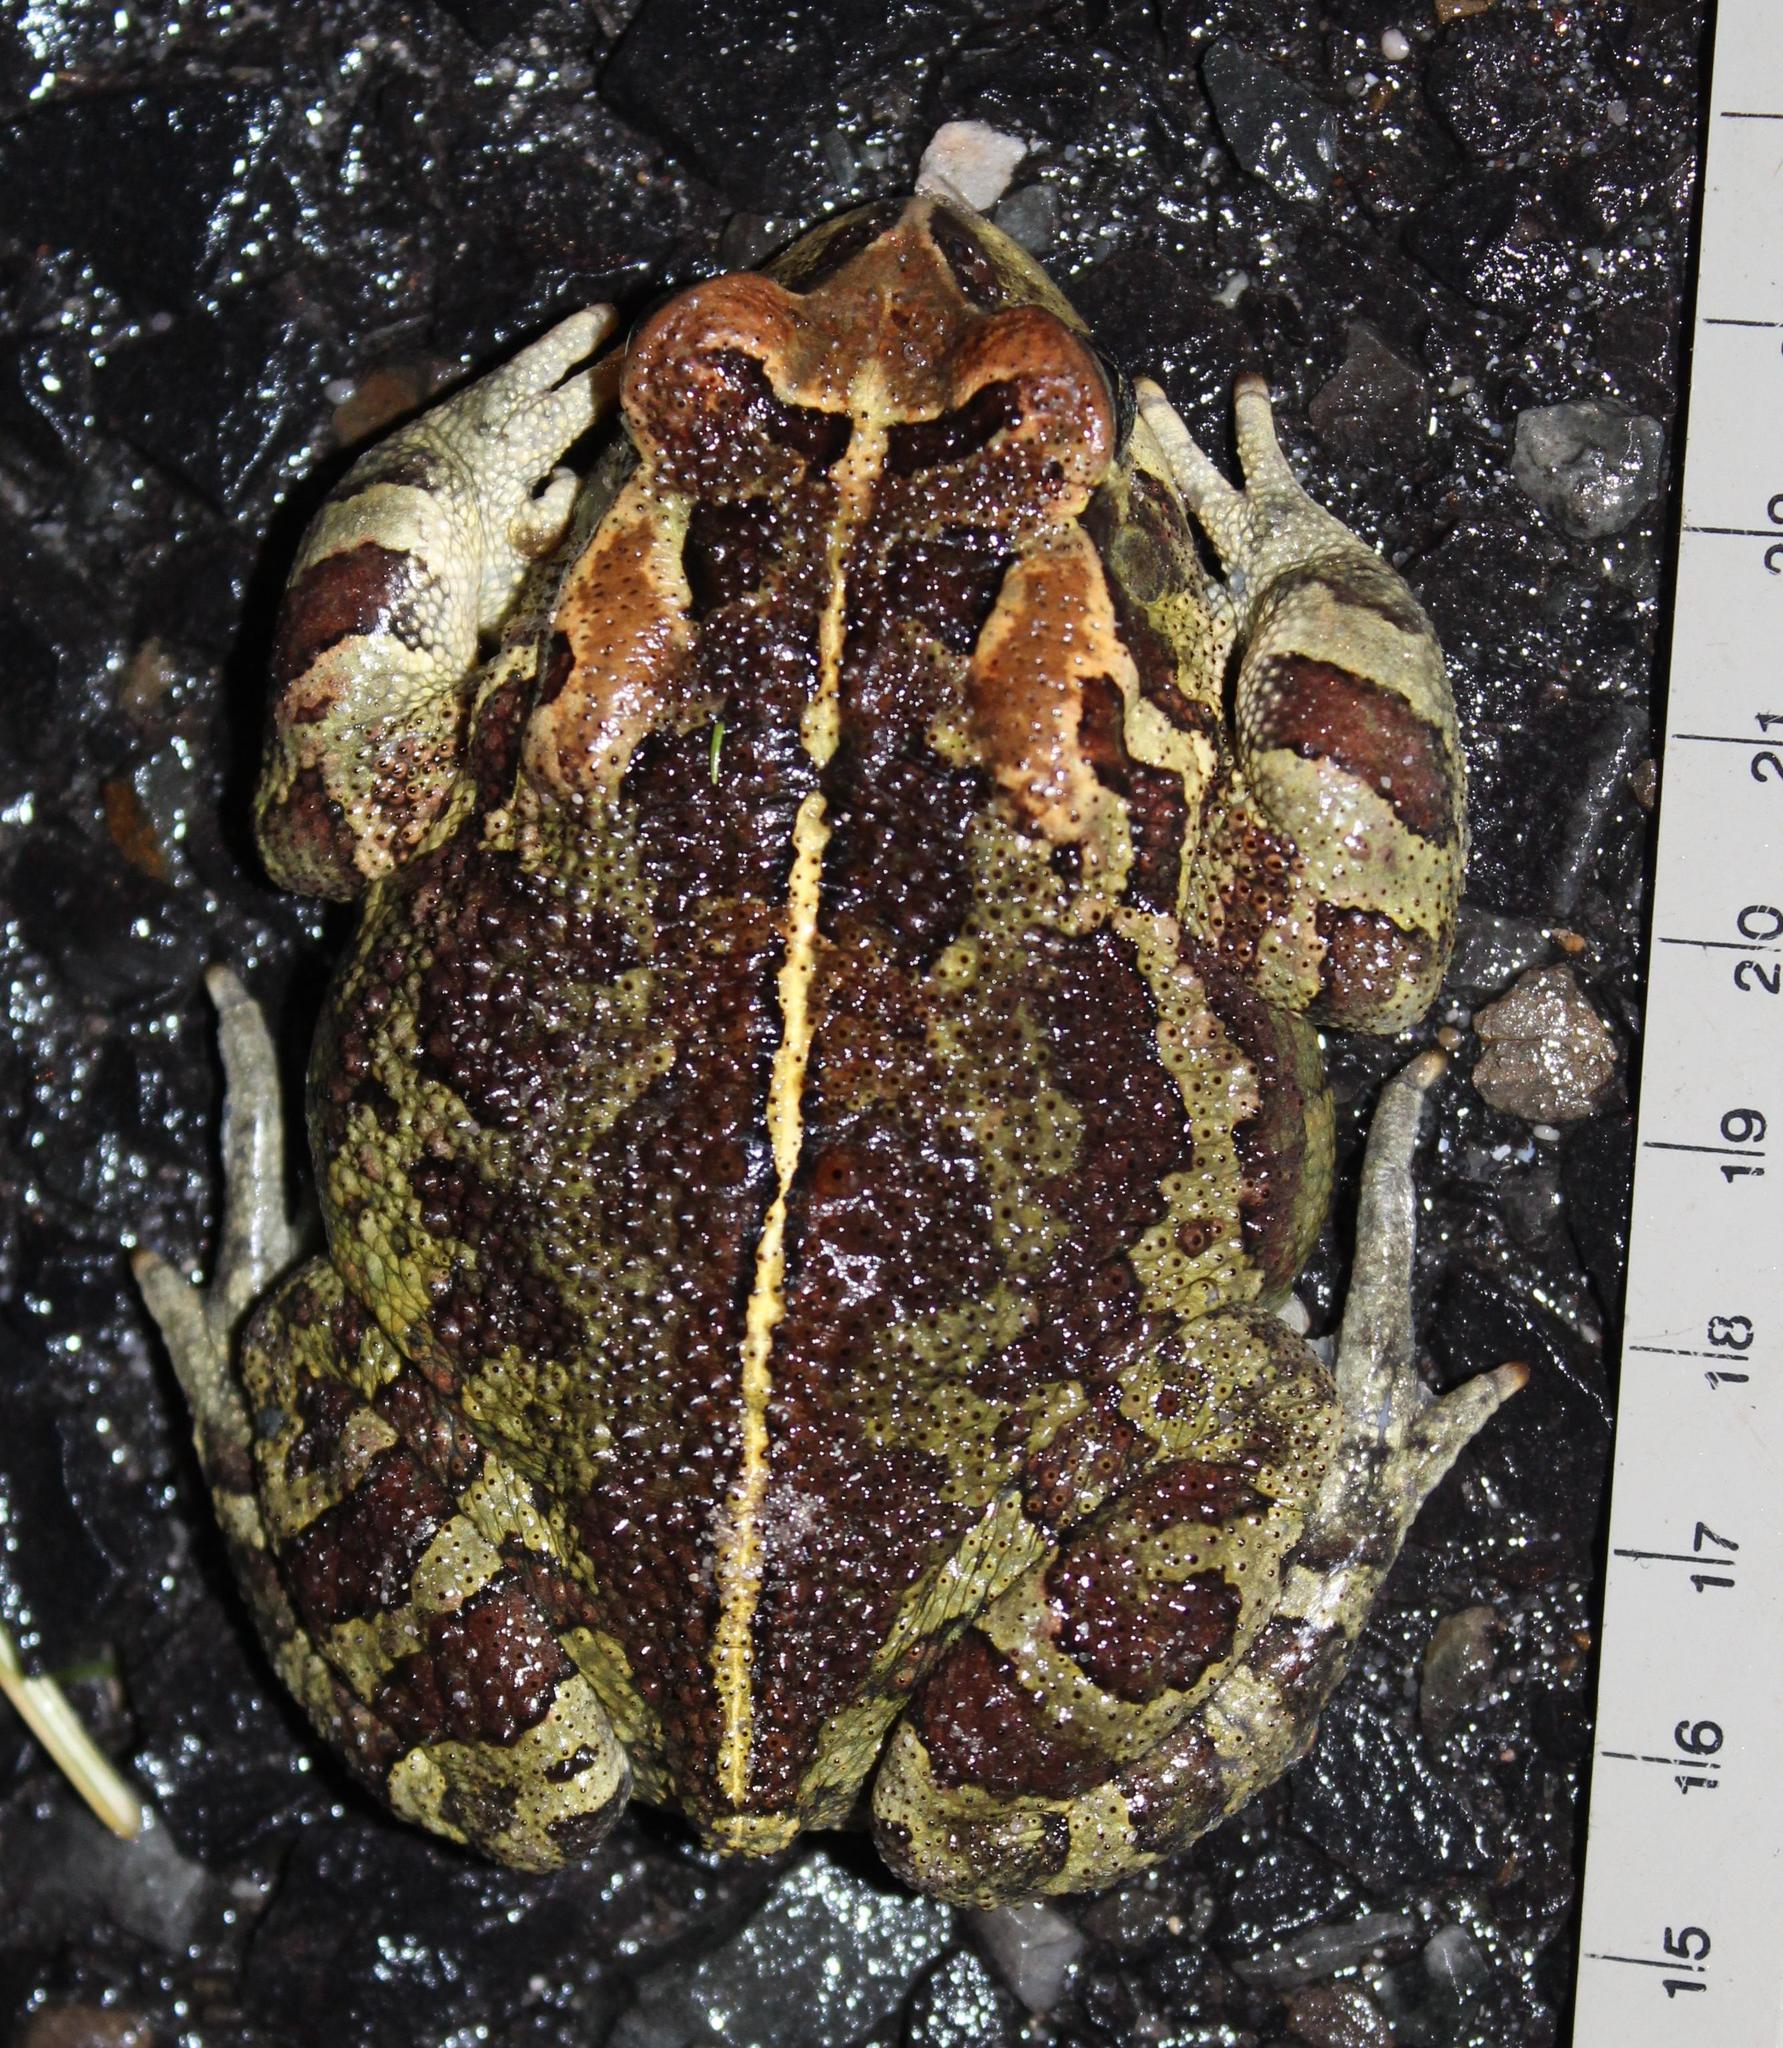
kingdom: Animalia
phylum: Chordata
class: Amphibia
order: Anura
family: Bufonidae
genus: Sclerophrys
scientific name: Sclerophrys pantherina
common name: Panther toad
